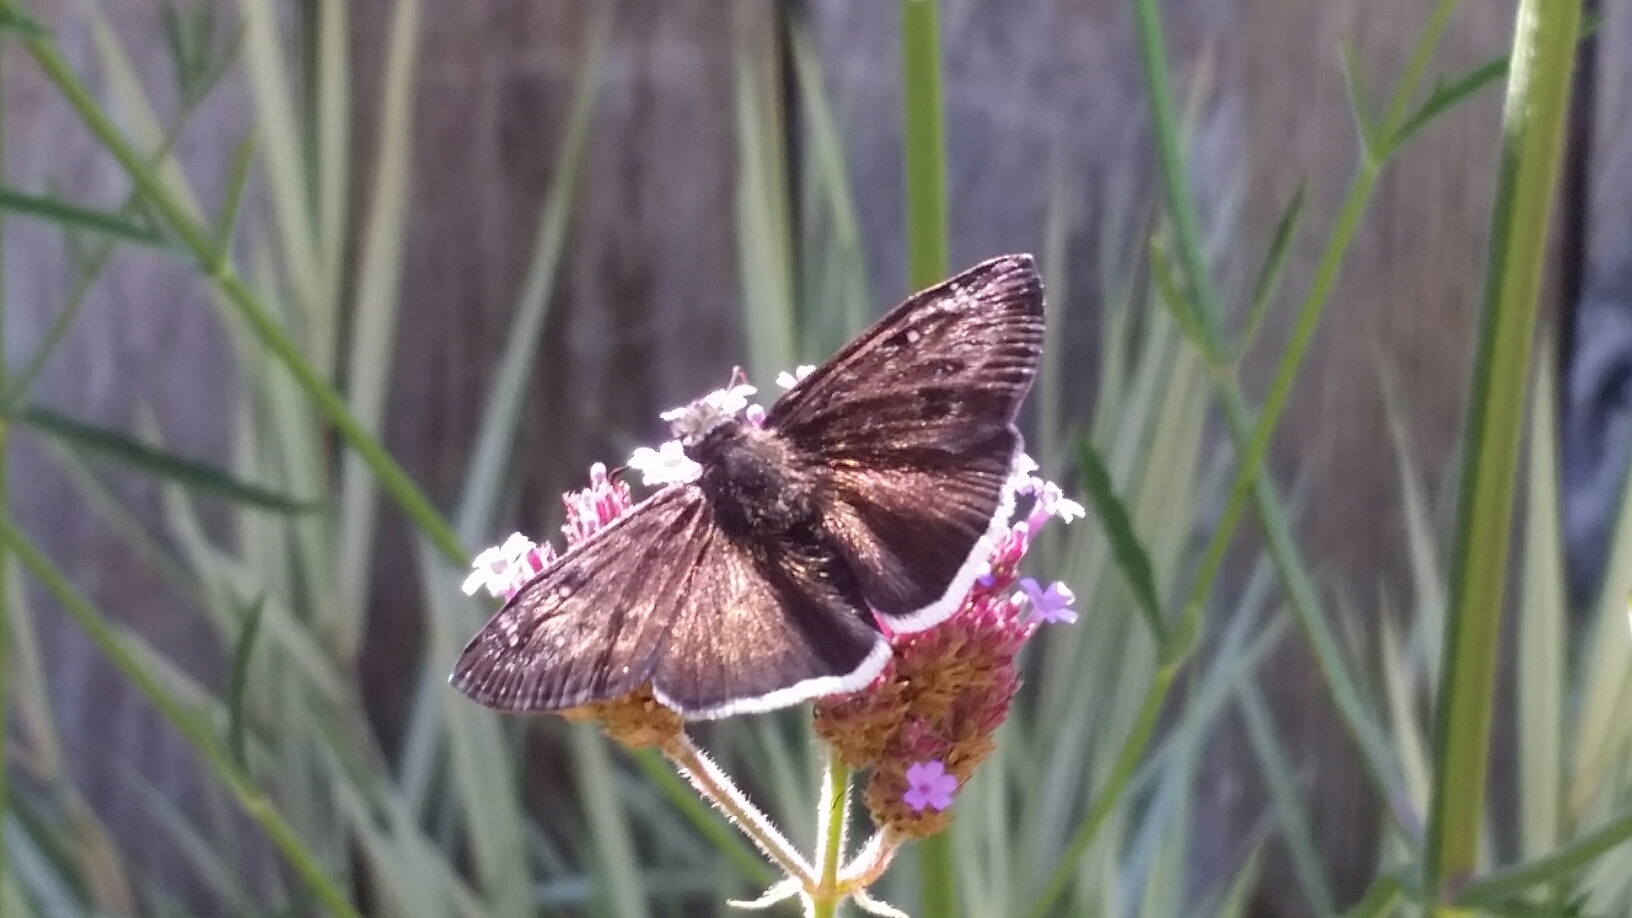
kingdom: Animalia
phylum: Arthropoda
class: Insecta
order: Lepidoptera
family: Hesperiidae
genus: Erynnis
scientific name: Erynnis tristis
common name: Mournful duskywing
